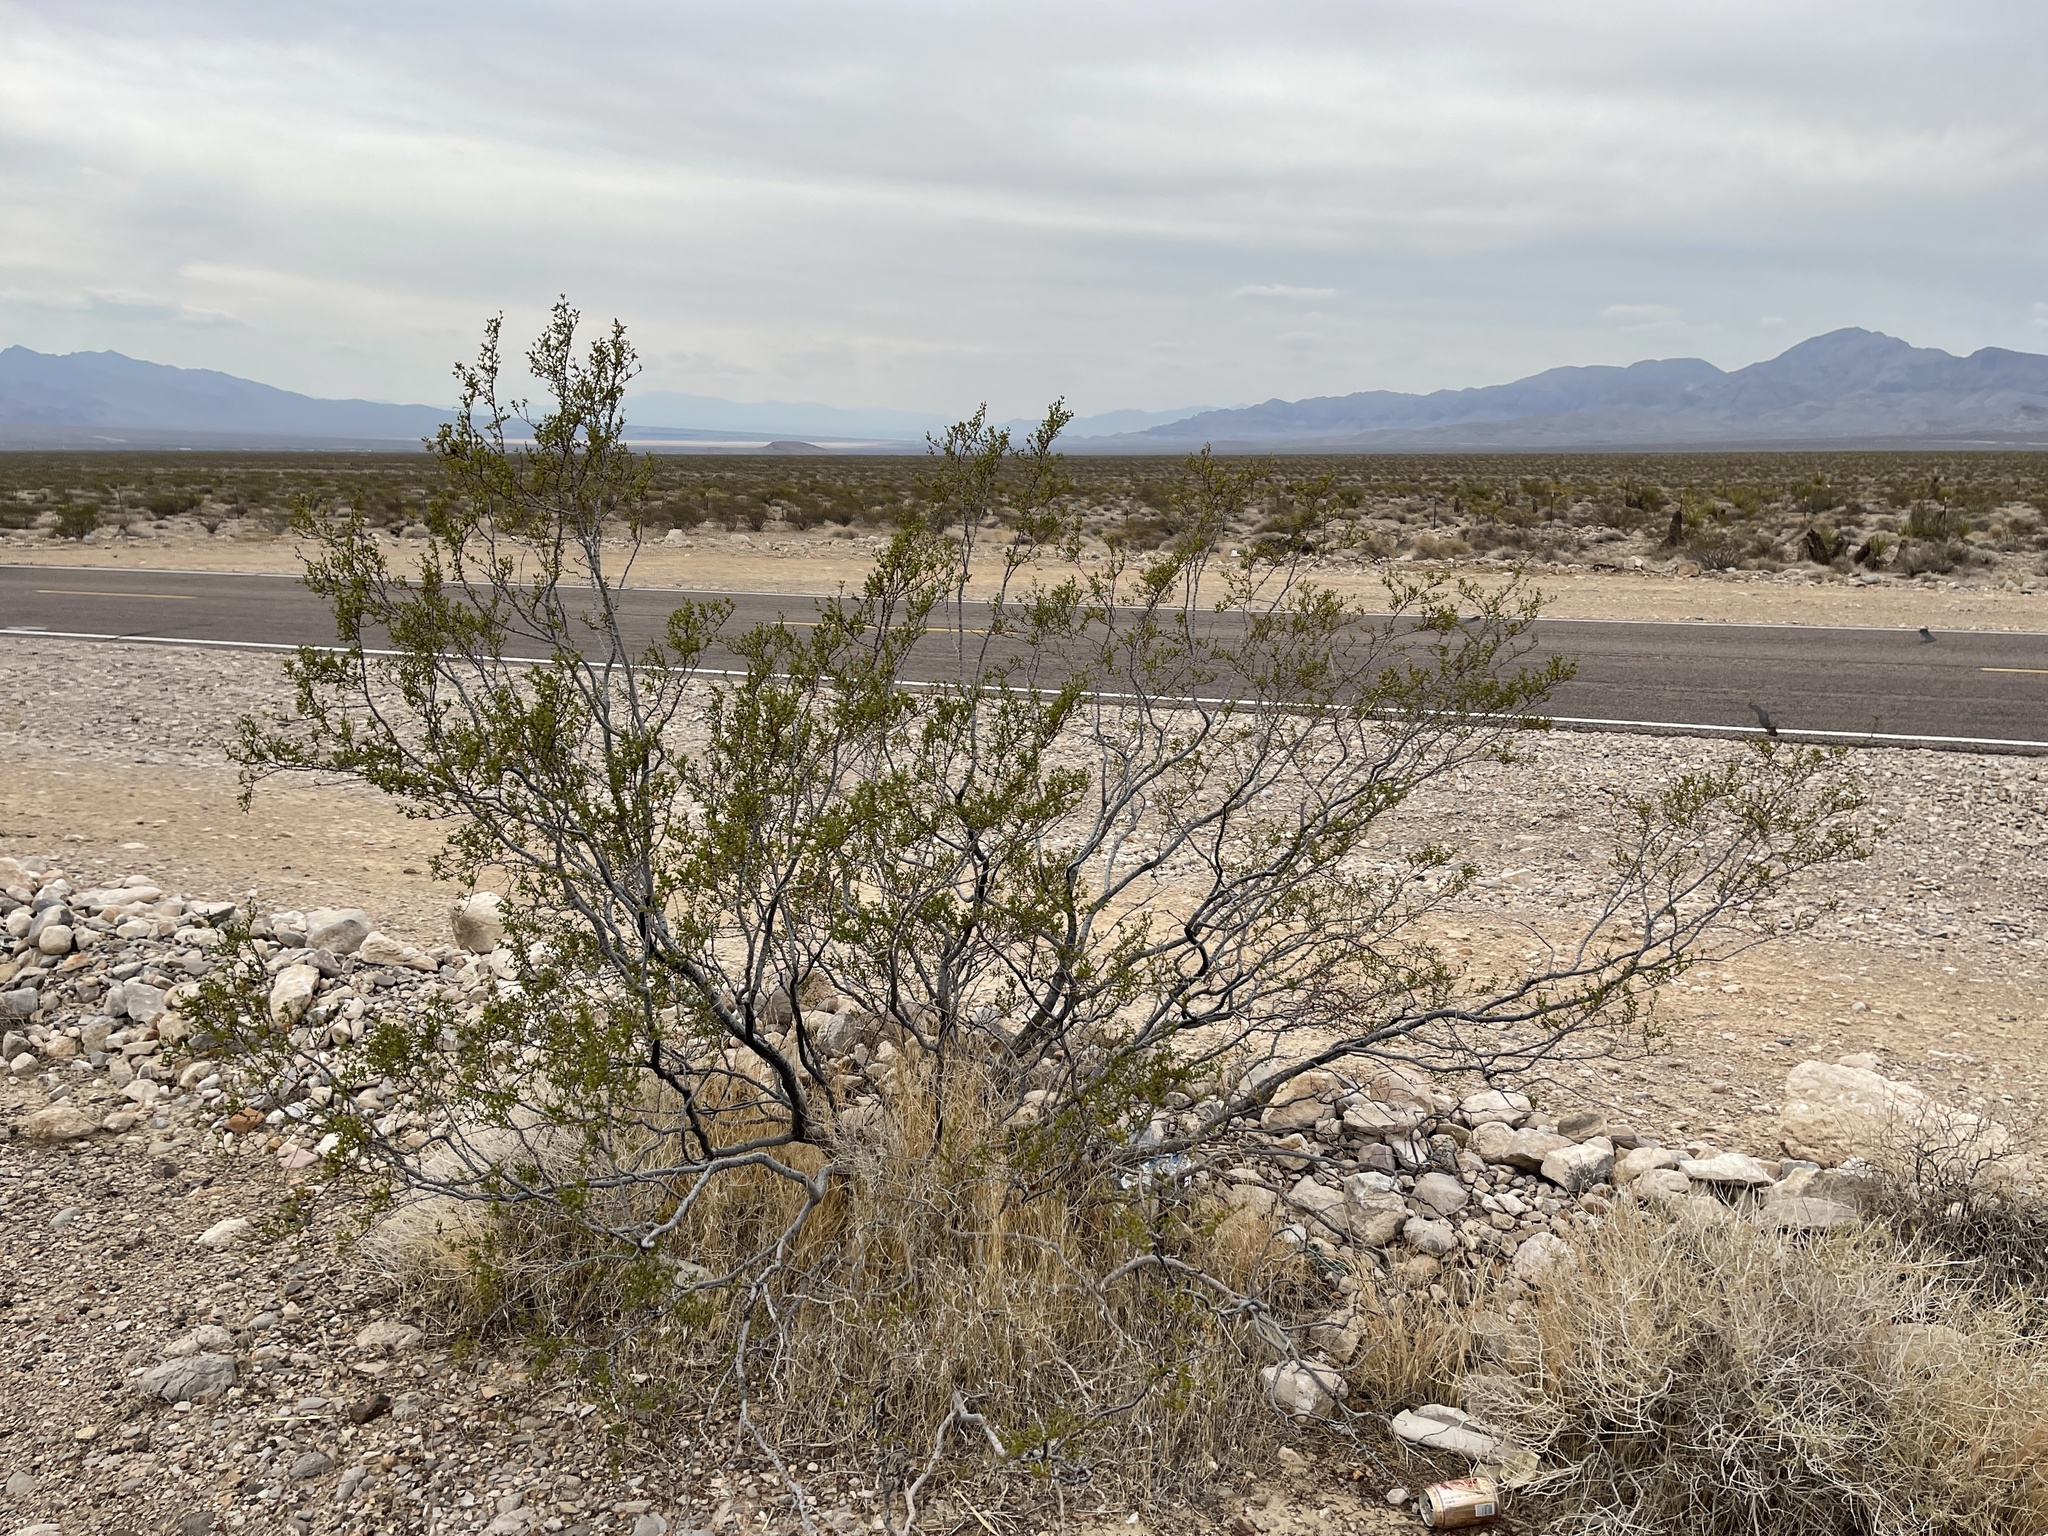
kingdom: Plantae
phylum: Tracheophyta
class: Magnoliopsida
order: Zygophyllales
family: Zygophyllaceae
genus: Larrea
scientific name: Larrea tridentata
